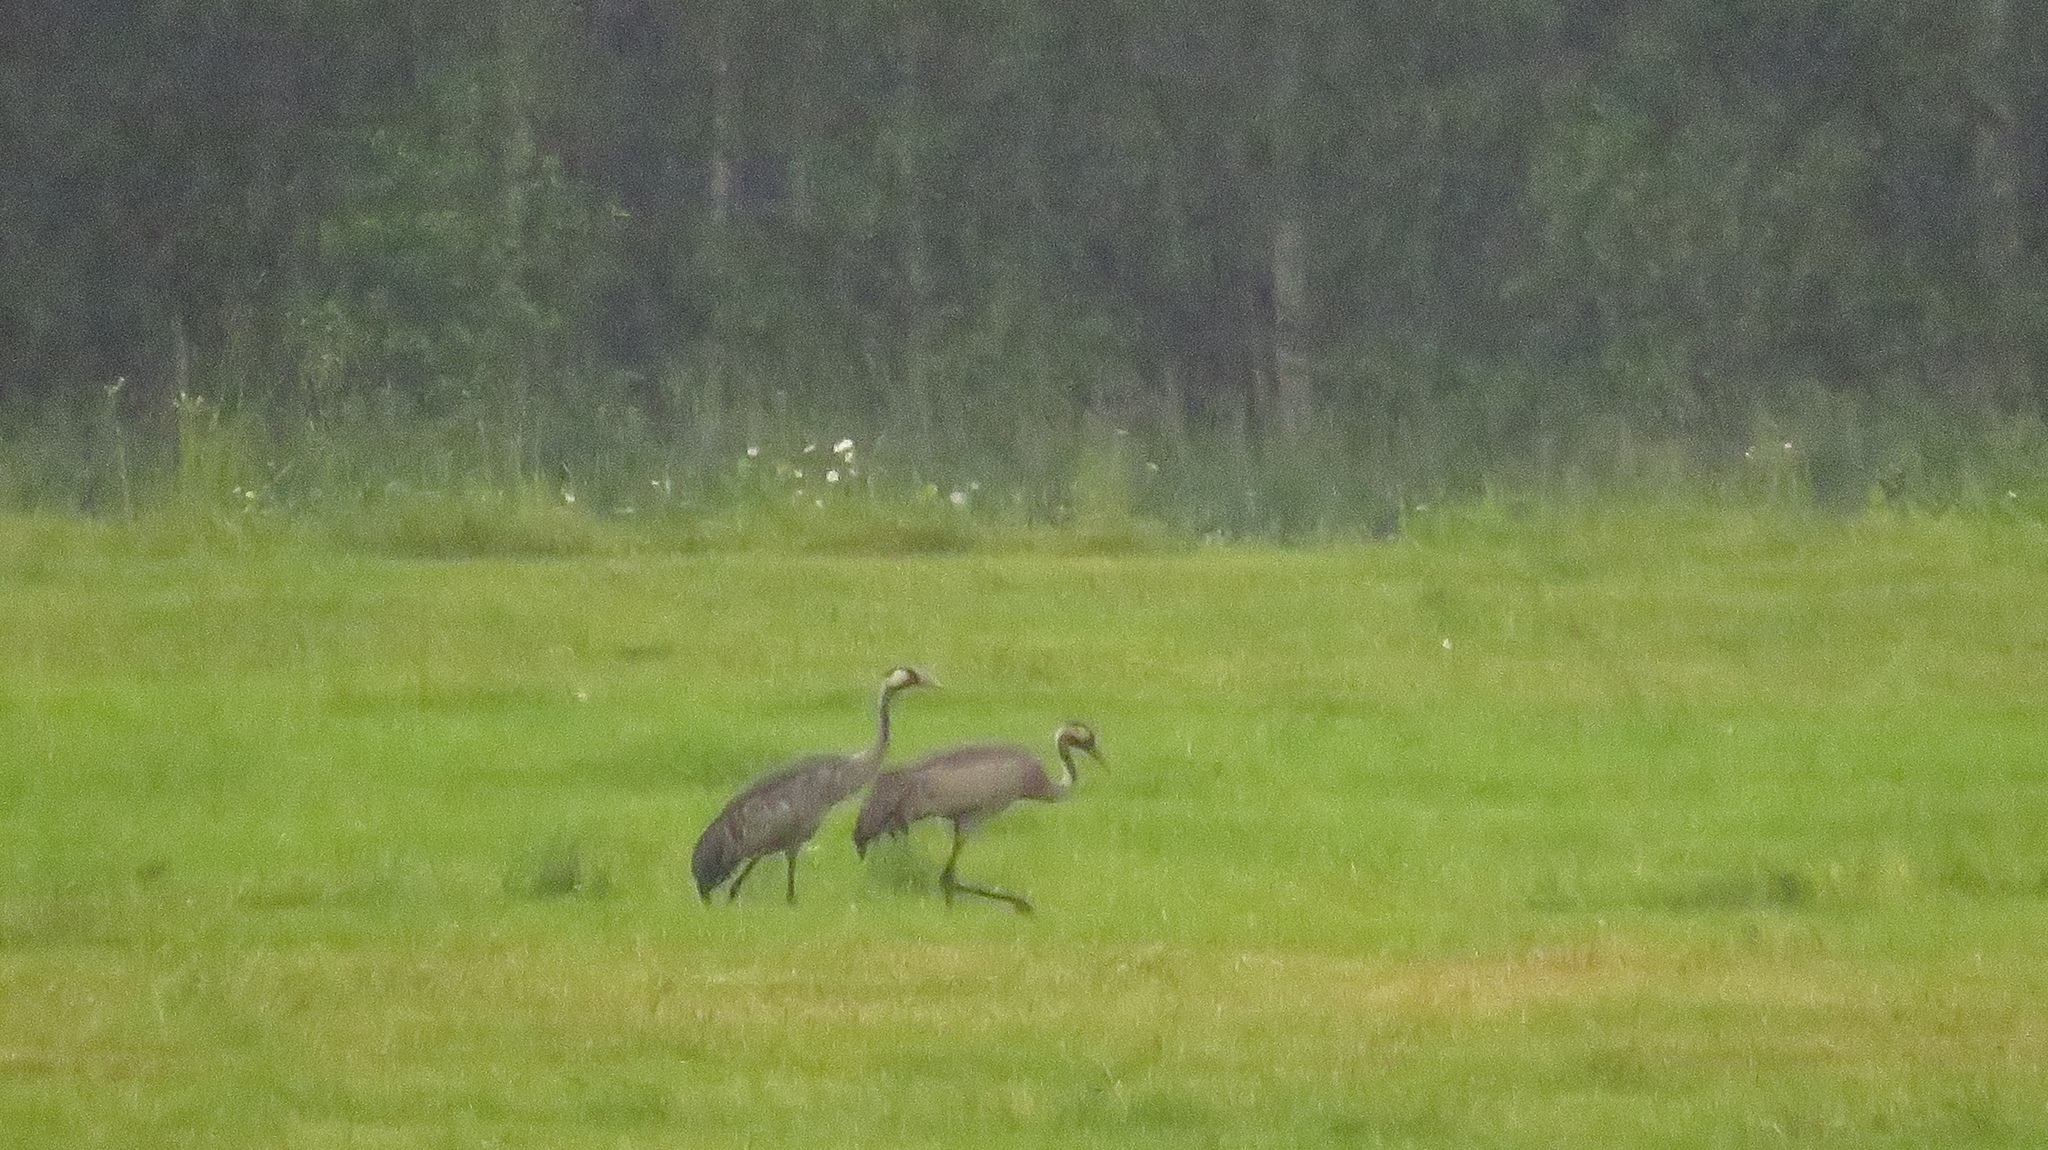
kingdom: Animalia
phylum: Chordata
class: Aves
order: Gruiformes
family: Gruidae
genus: Grus
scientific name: Grus grus
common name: Common crane
